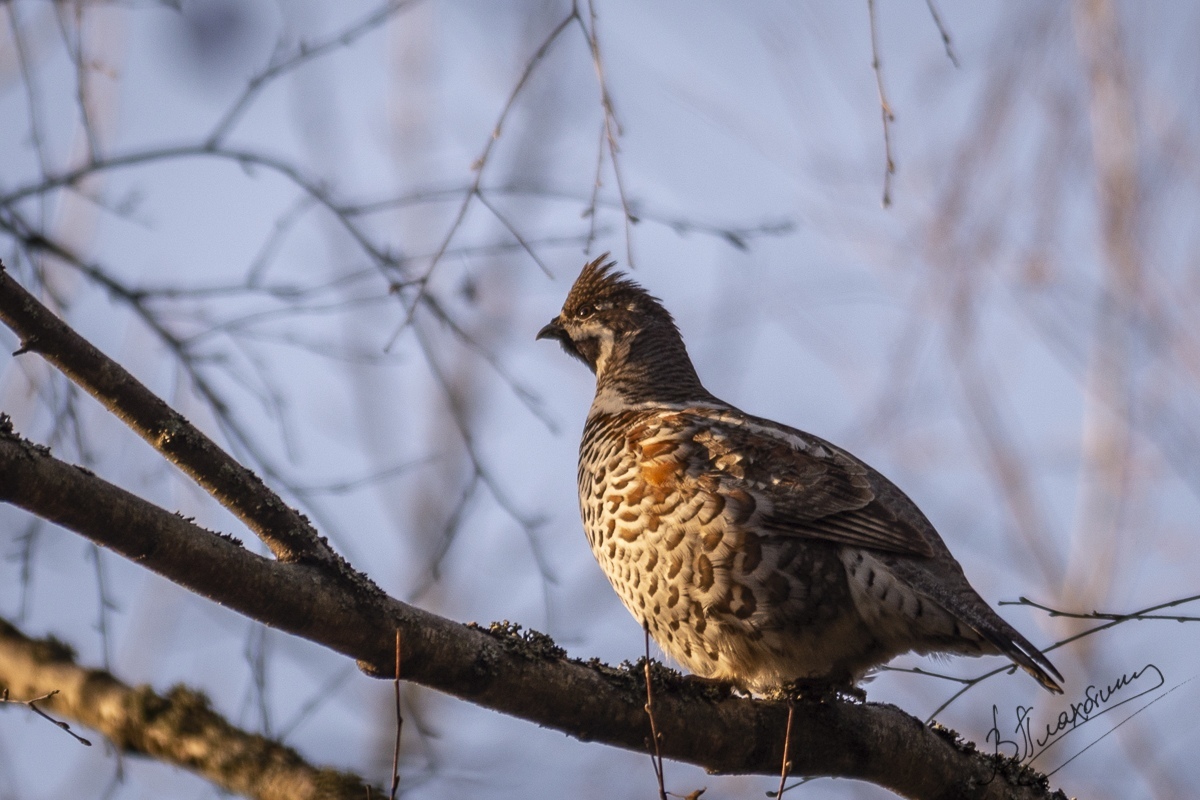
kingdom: Animalia
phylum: Chordata
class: Aves
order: Galliformes
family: Phasianidae
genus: Tetrastes
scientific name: Tetrastes bonasia
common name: Hazel grouse
